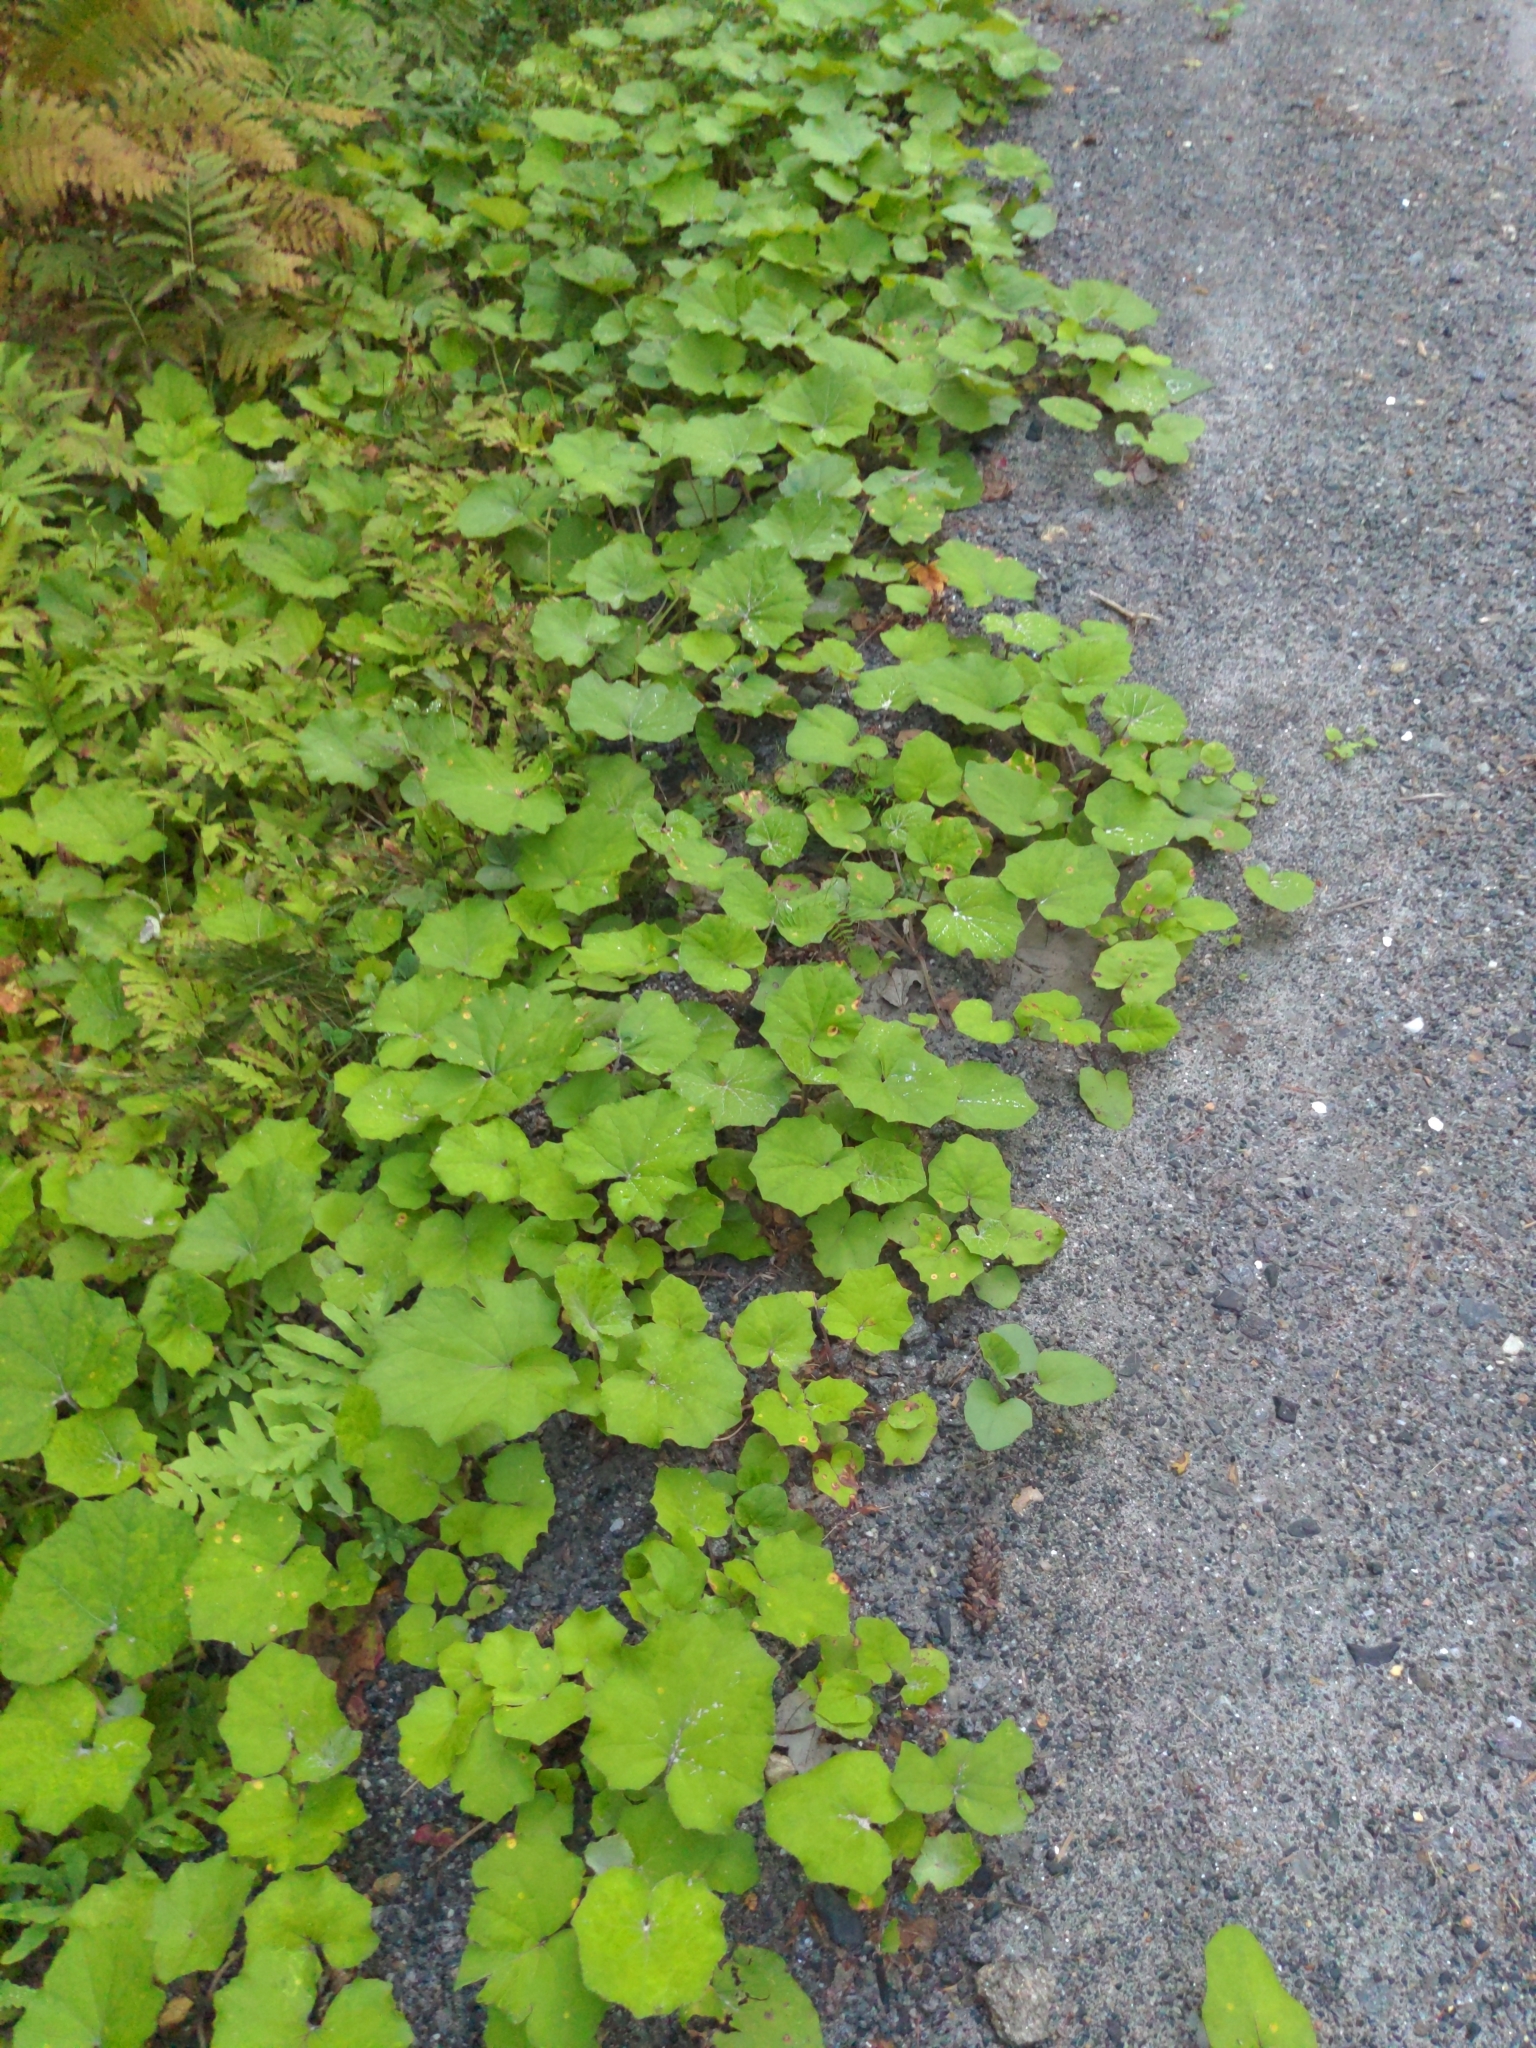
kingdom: Plantae
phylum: Tracheophyta
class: Magnoliopsida
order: Asterales
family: Asteraceae
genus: Tussilago
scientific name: Tussilago farfara
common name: Coltsfoot
